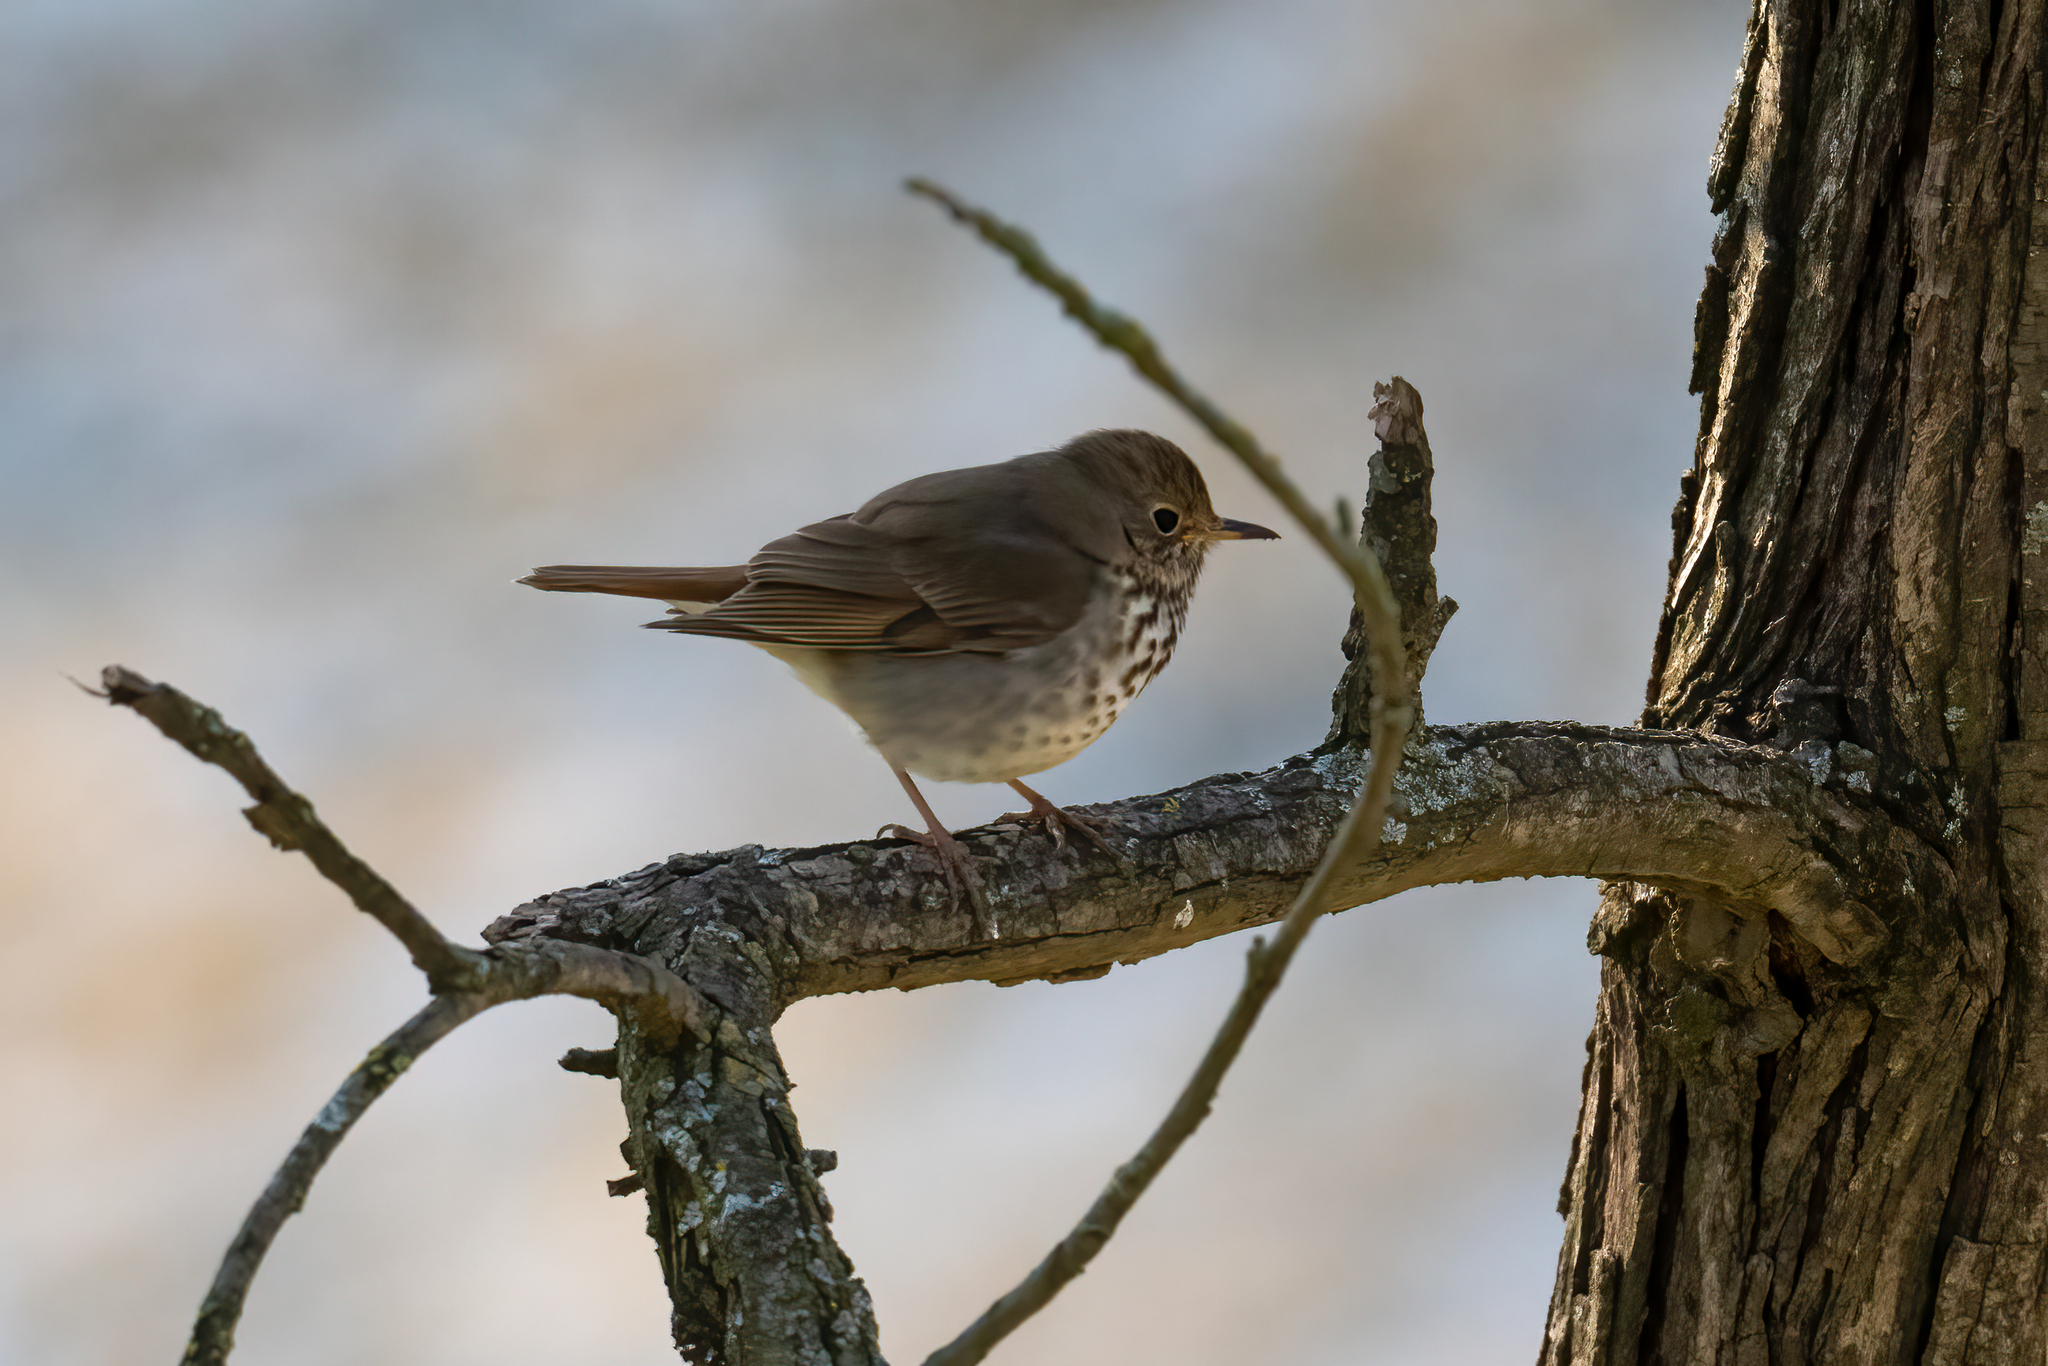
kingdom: Animalia
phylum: Chordata
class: Aves
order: Passeriformes
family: Turdidae
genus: Catharus
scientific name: Catharus guttatus
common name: Hermit thrush
